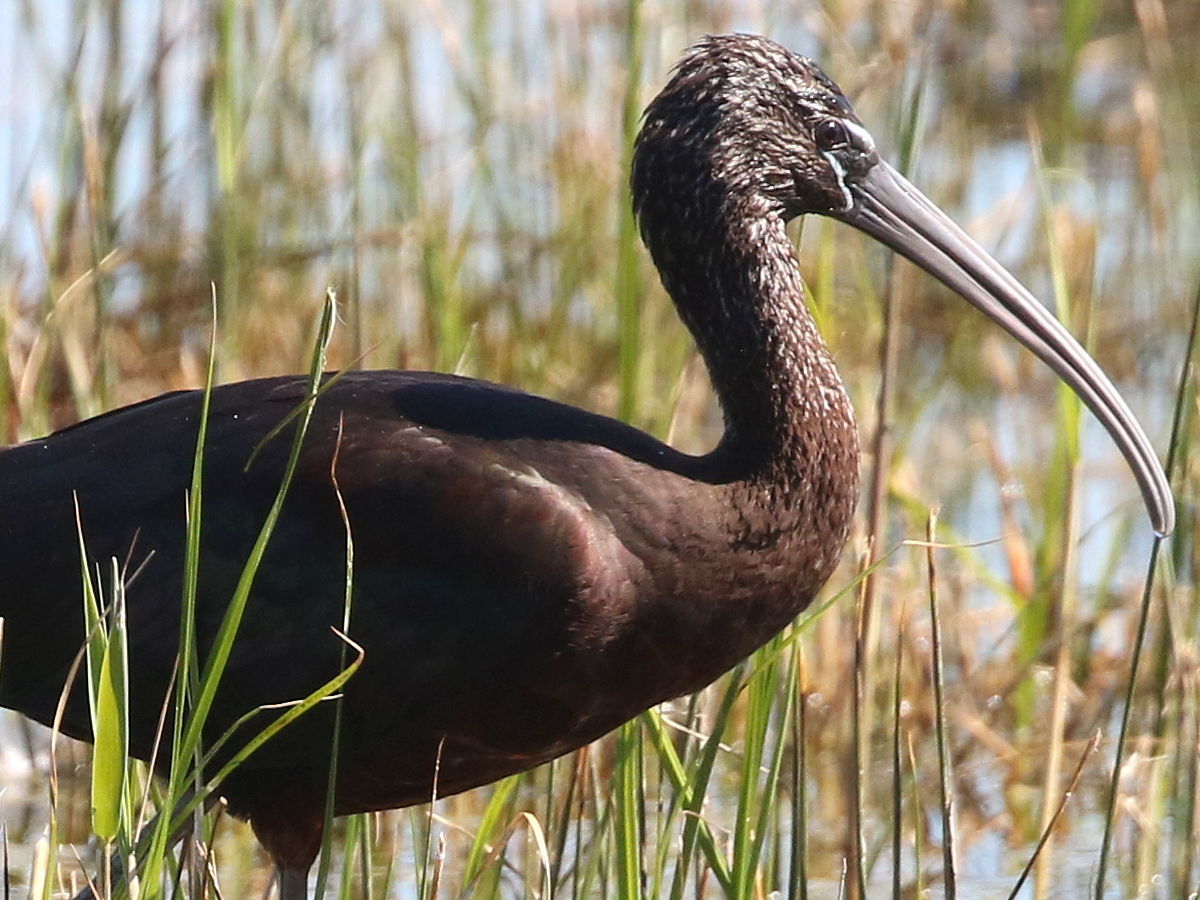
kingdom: Animalia
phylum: Chordata
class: Aves
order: Pelecaniformes
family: Threskiornithidae
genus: Plegadis
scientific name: Plegadis falcinellus
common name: Glossy ibis
